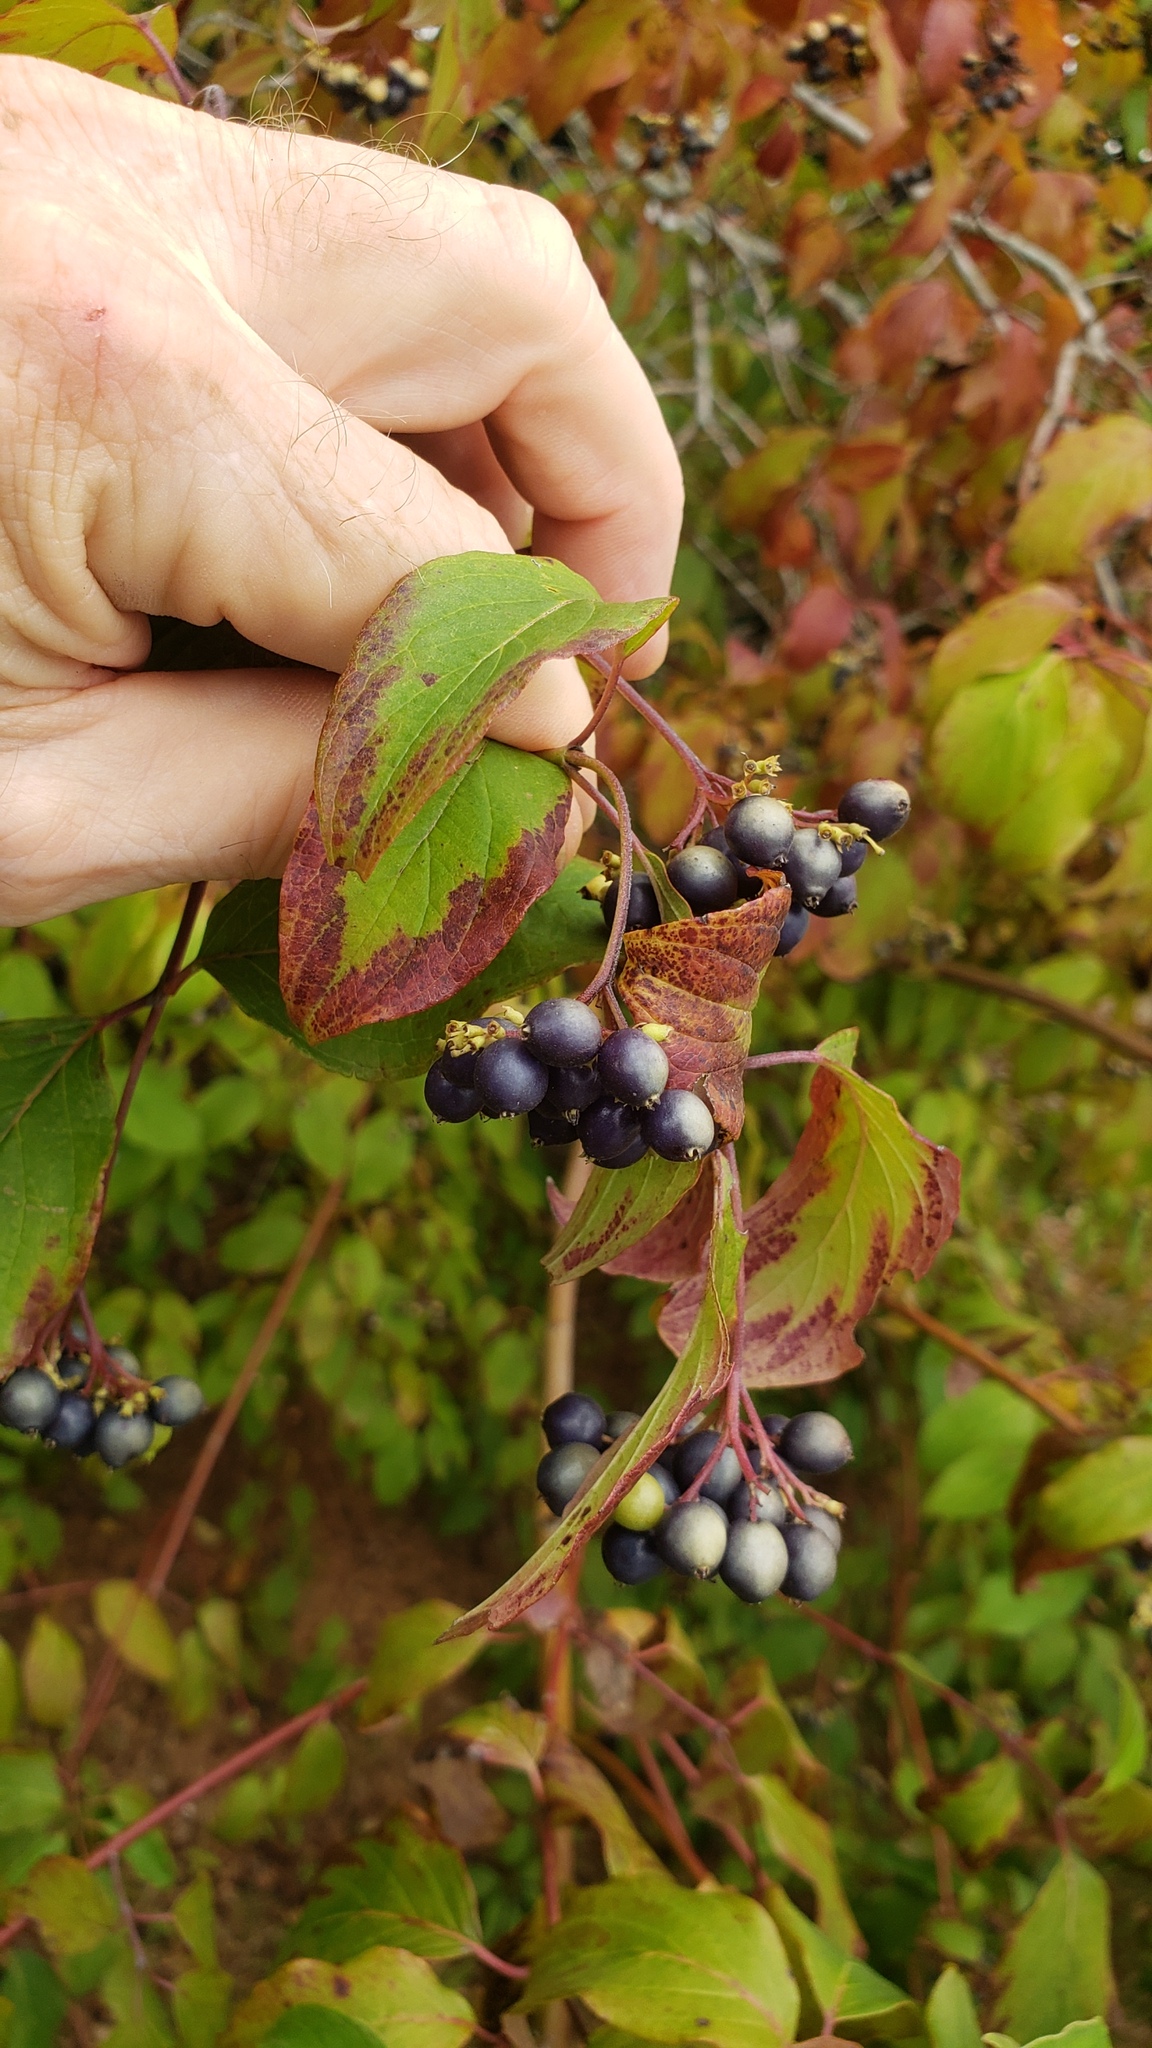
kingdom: Plantae
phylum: Tracheophyta
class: Magnoliopsida
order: Cornales
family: Cornaceae
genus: Cornus
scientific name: Cornus amomum
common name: Silky dogwood
